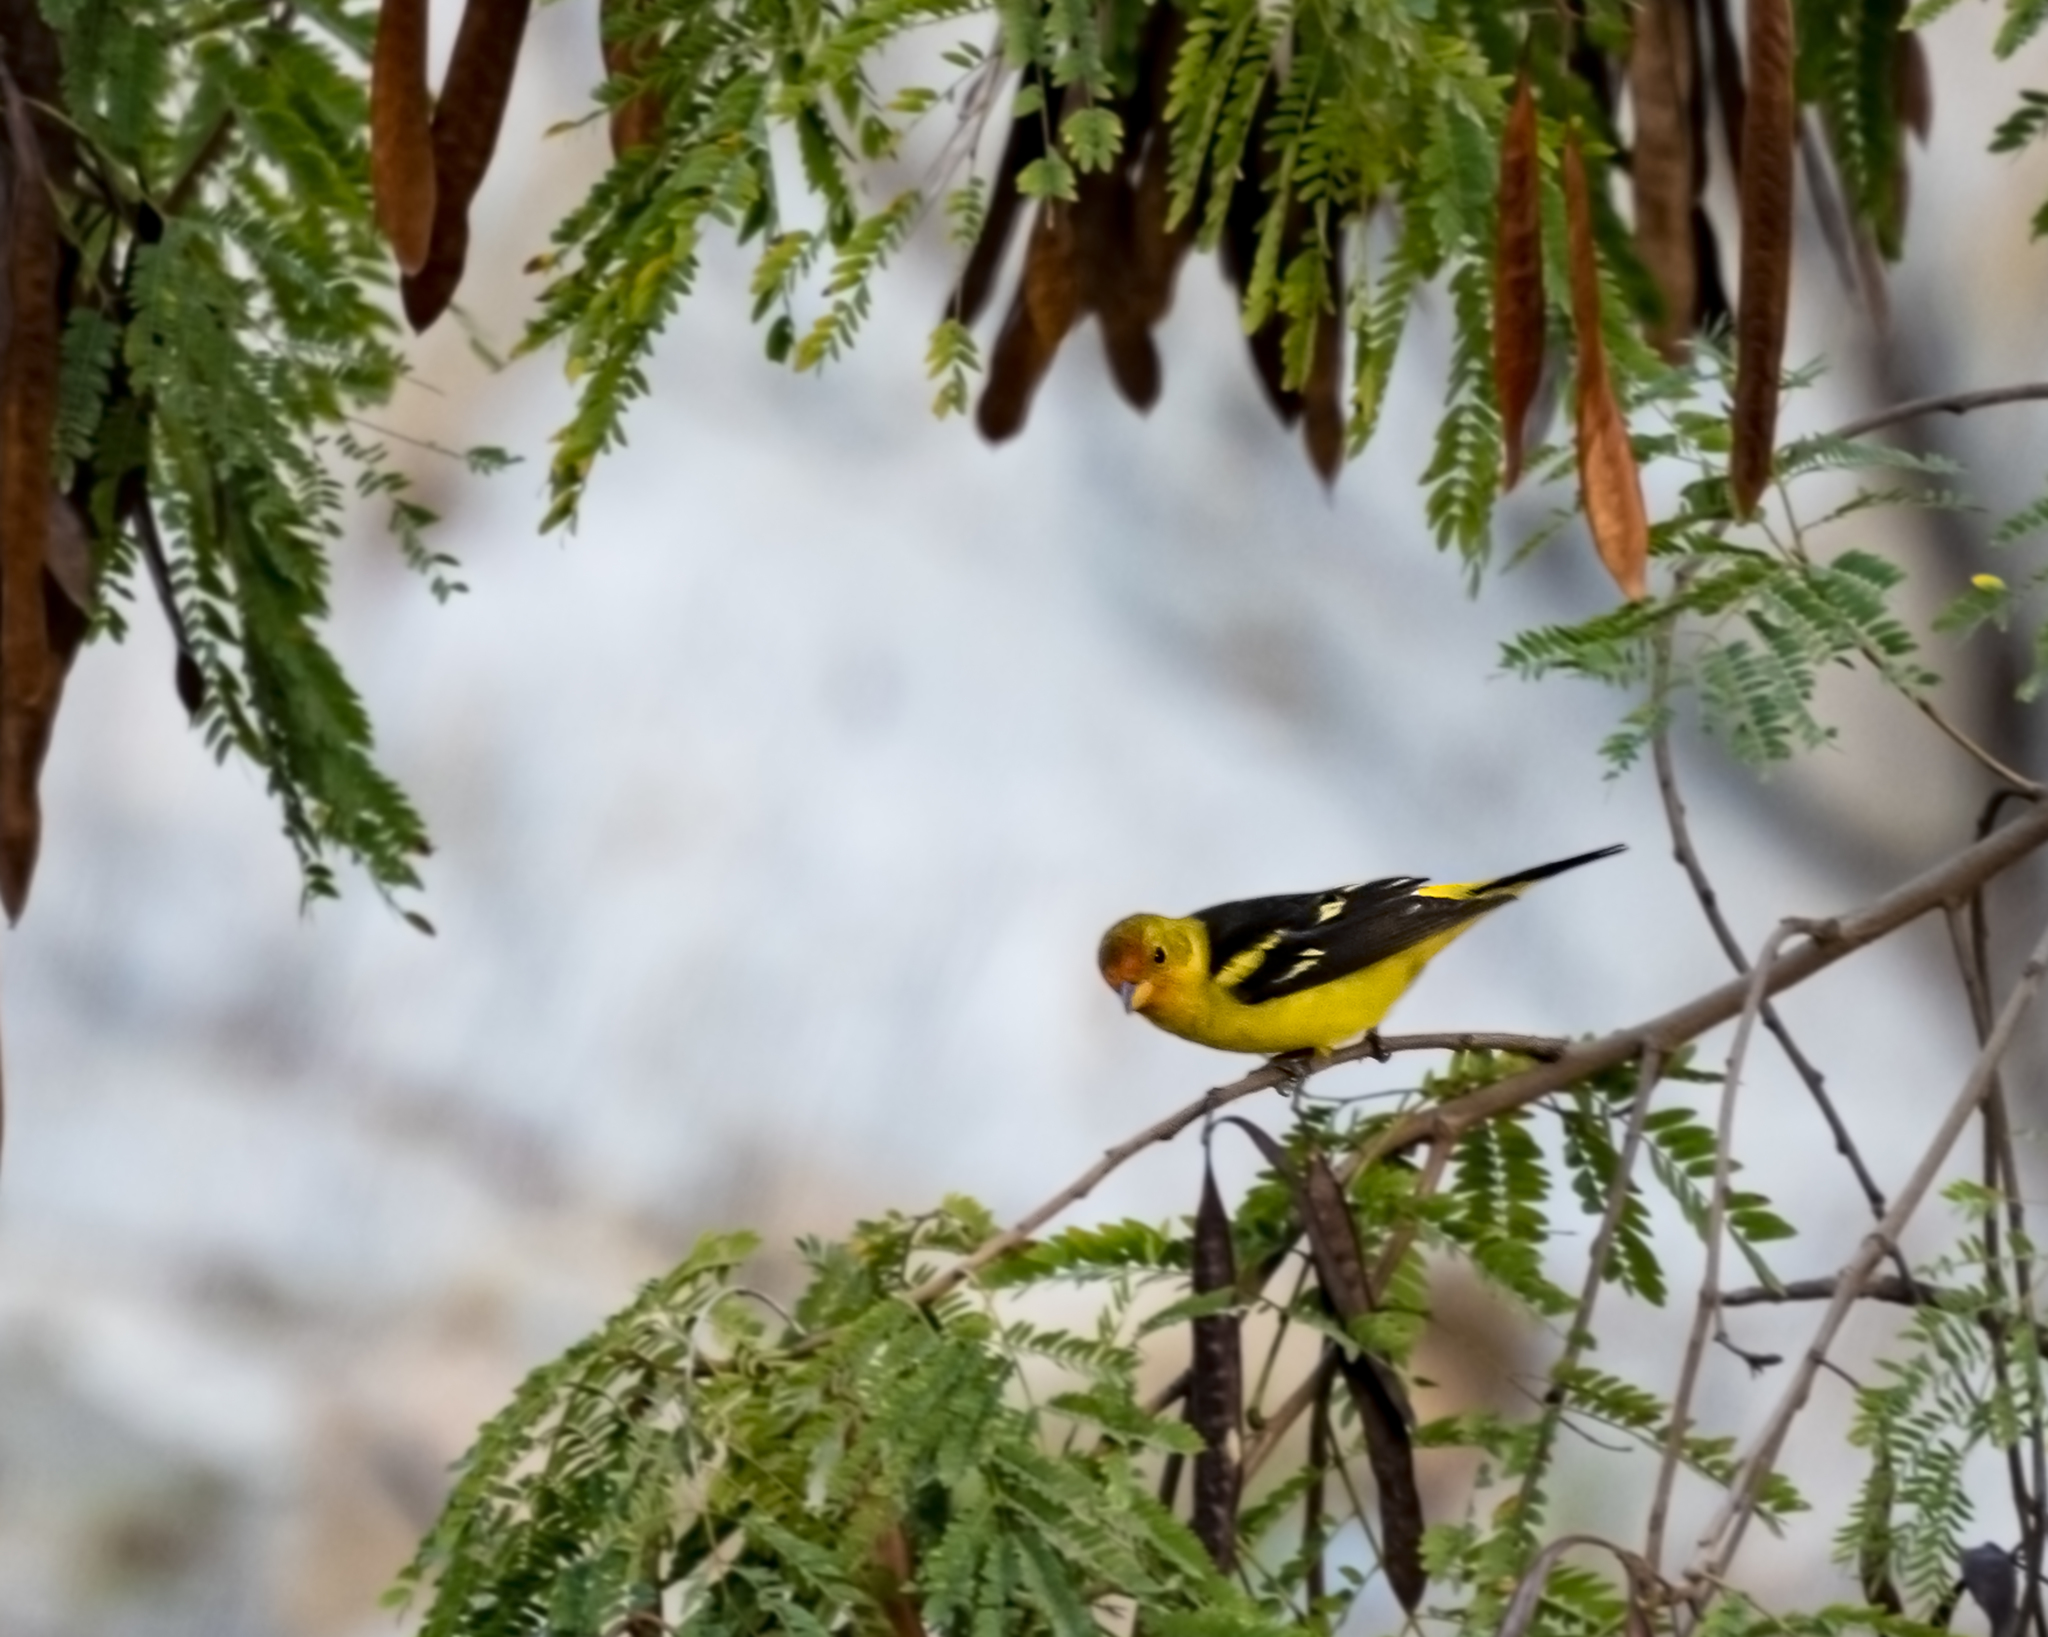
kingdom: Animalia
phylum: Chordata
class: Aves
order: Passeriformes
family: Cardinalidae
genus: Piranga
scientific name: Piranga ludoviciana
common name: Western tanager
